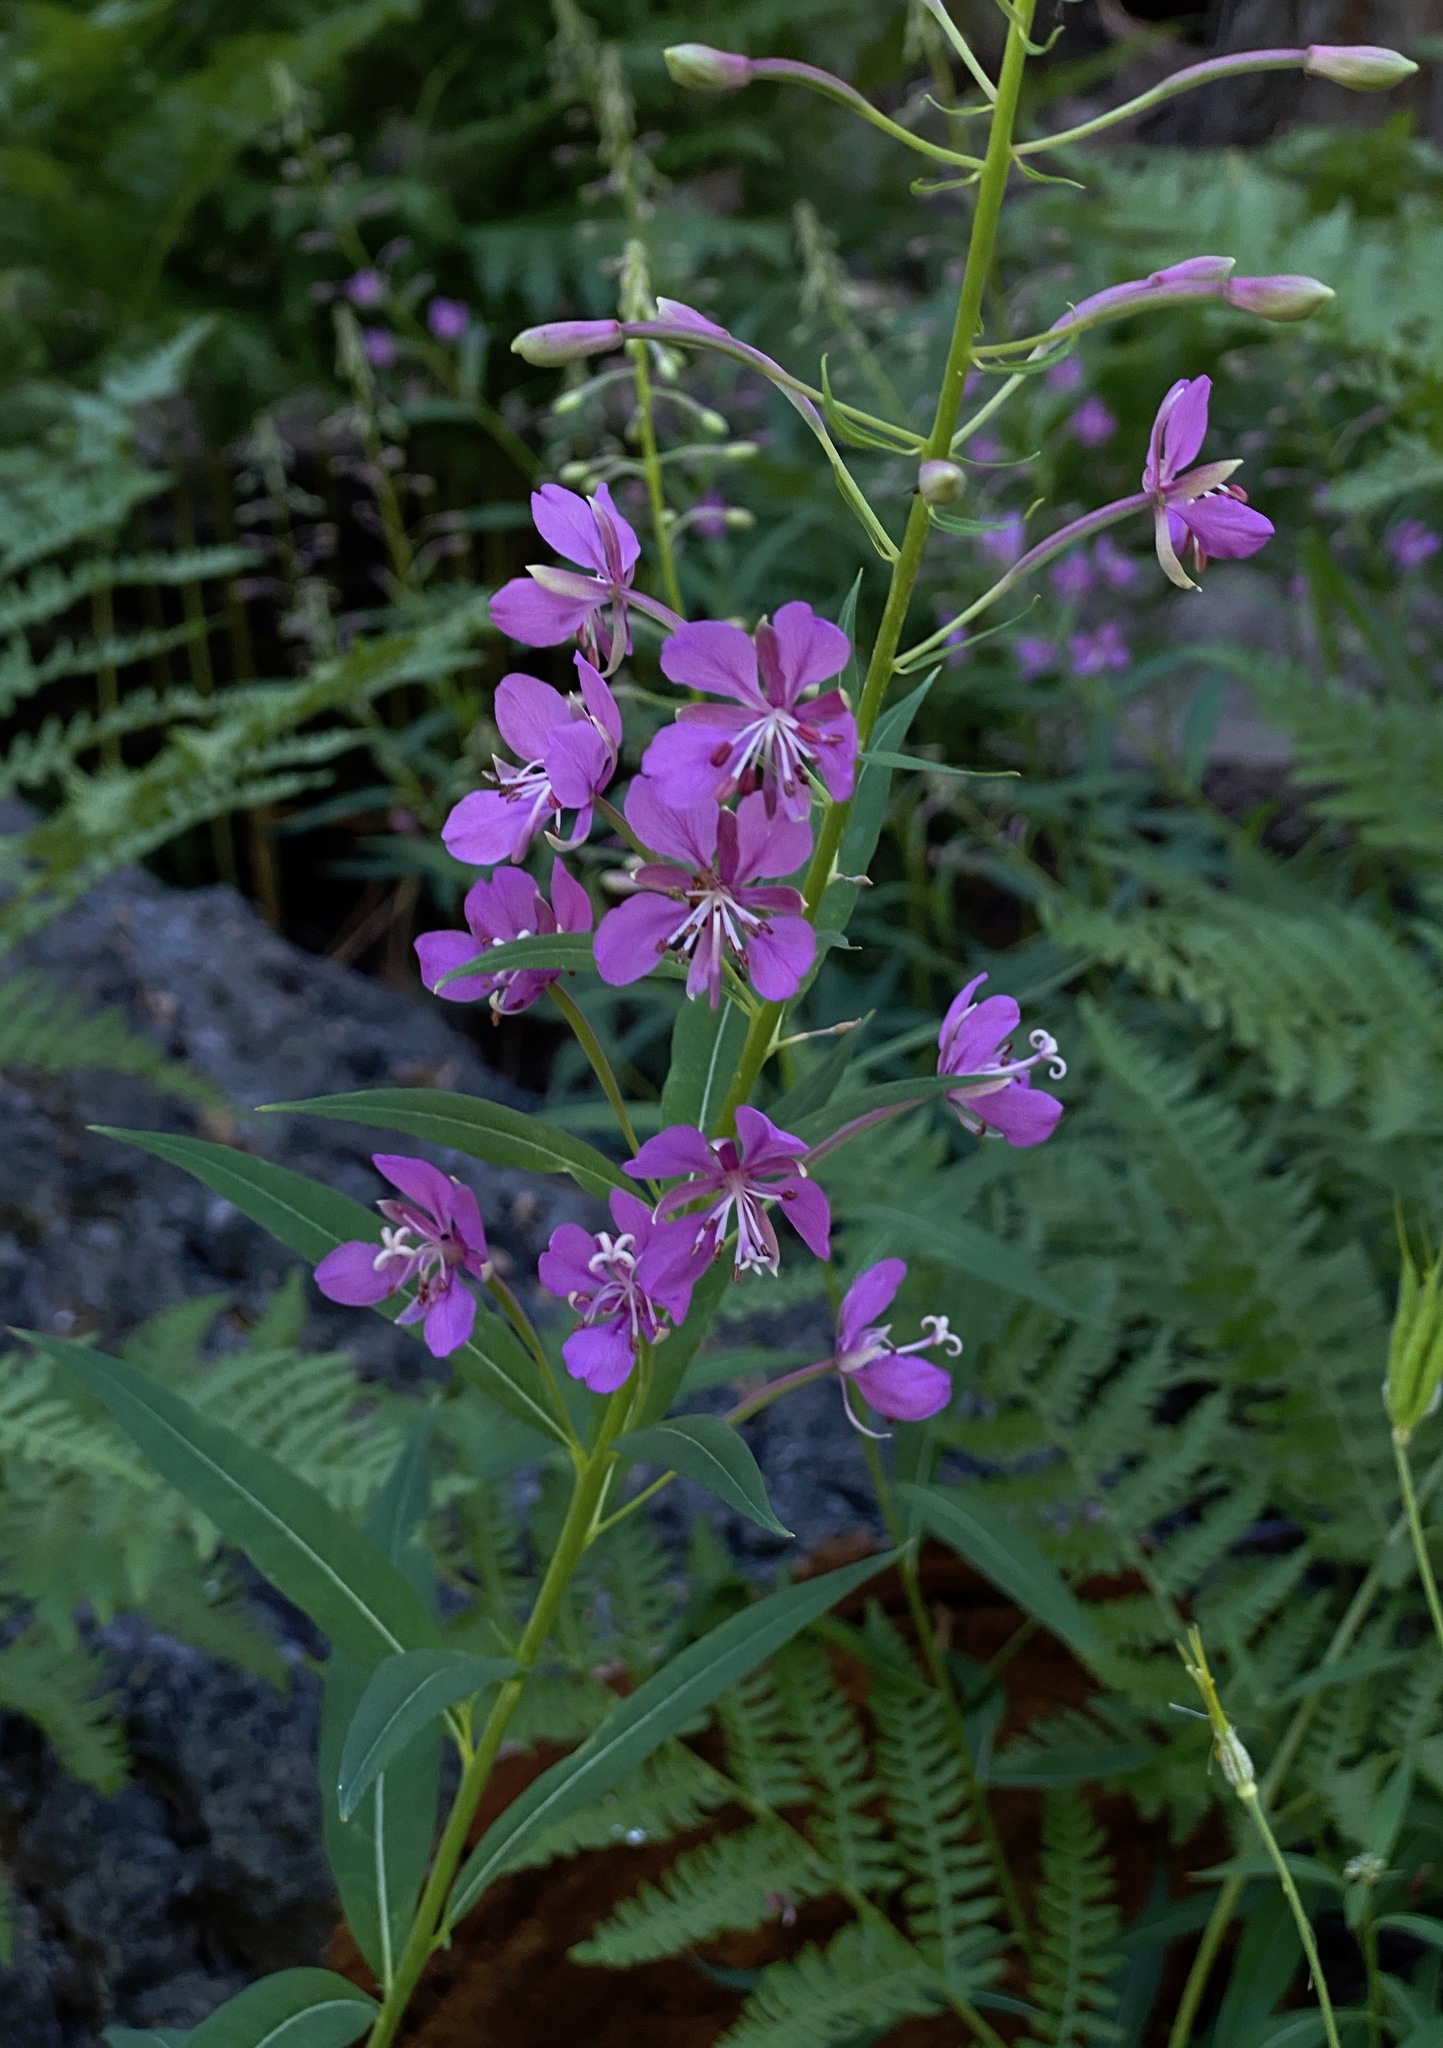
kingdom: Plantae
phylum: Tracheophyta
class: Magnoliopsida
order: Myrtales
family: Onagraceae
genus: Chamaenerion
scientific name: Chamaenerion angustifolium
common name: Fireweed
